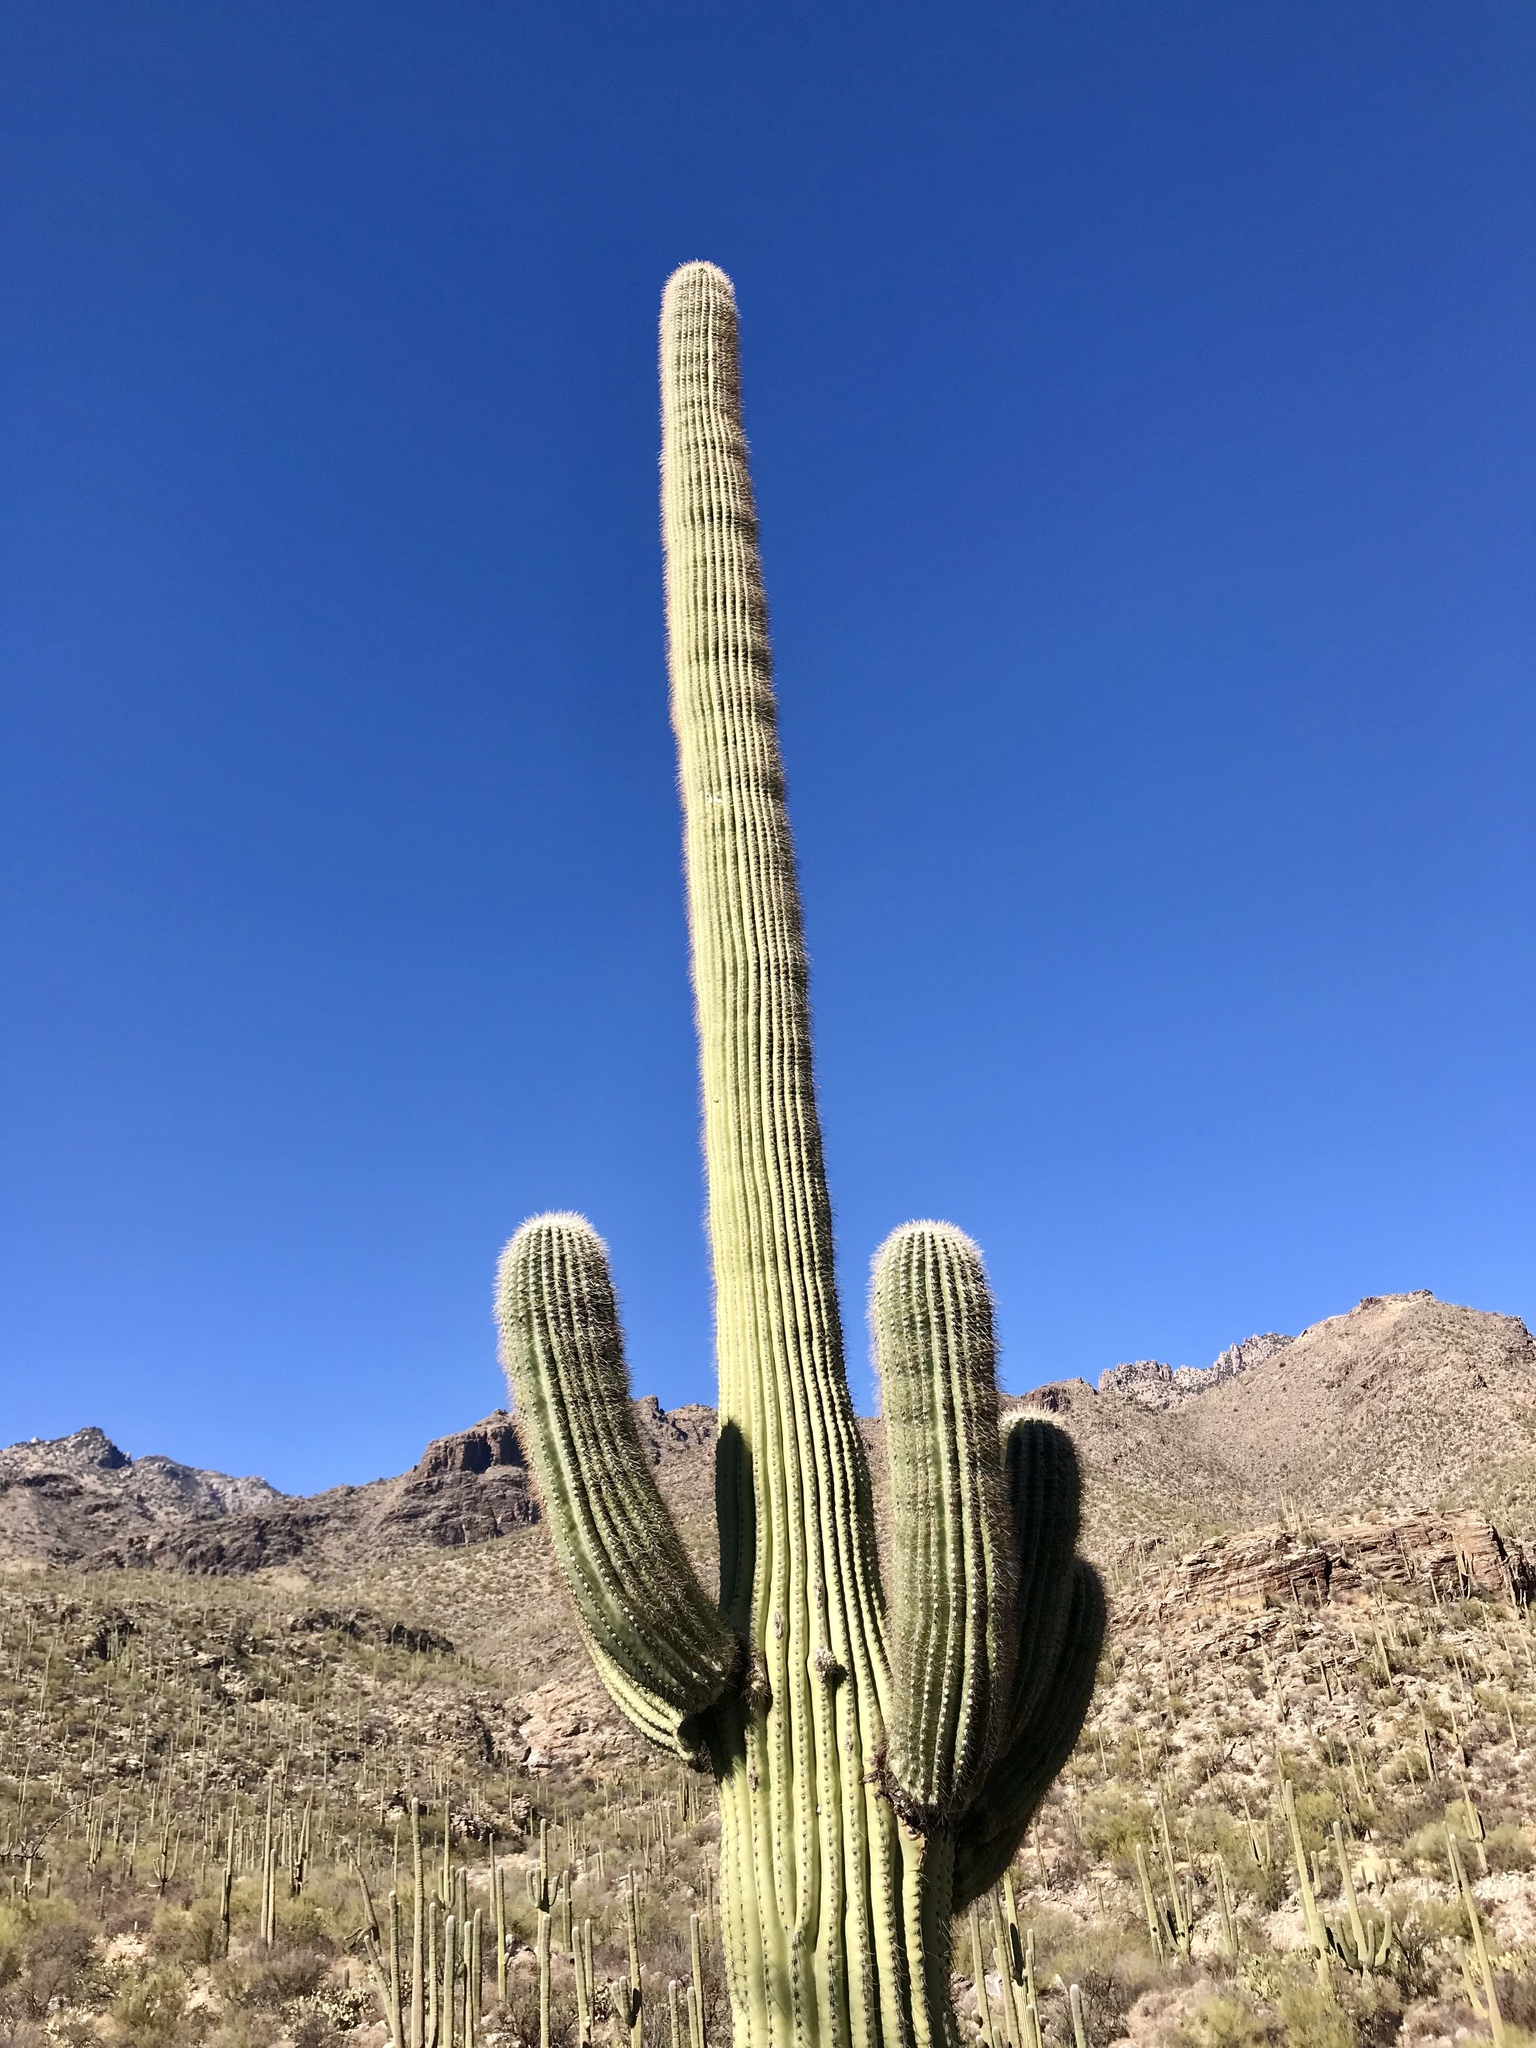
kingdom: Plantae
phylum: Tracheophyta
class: Magnoliopsida
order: Caryophyllales
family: Cactaceae
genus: Carnegiea
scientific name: Carnegiea gigantea
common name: Saguaro
